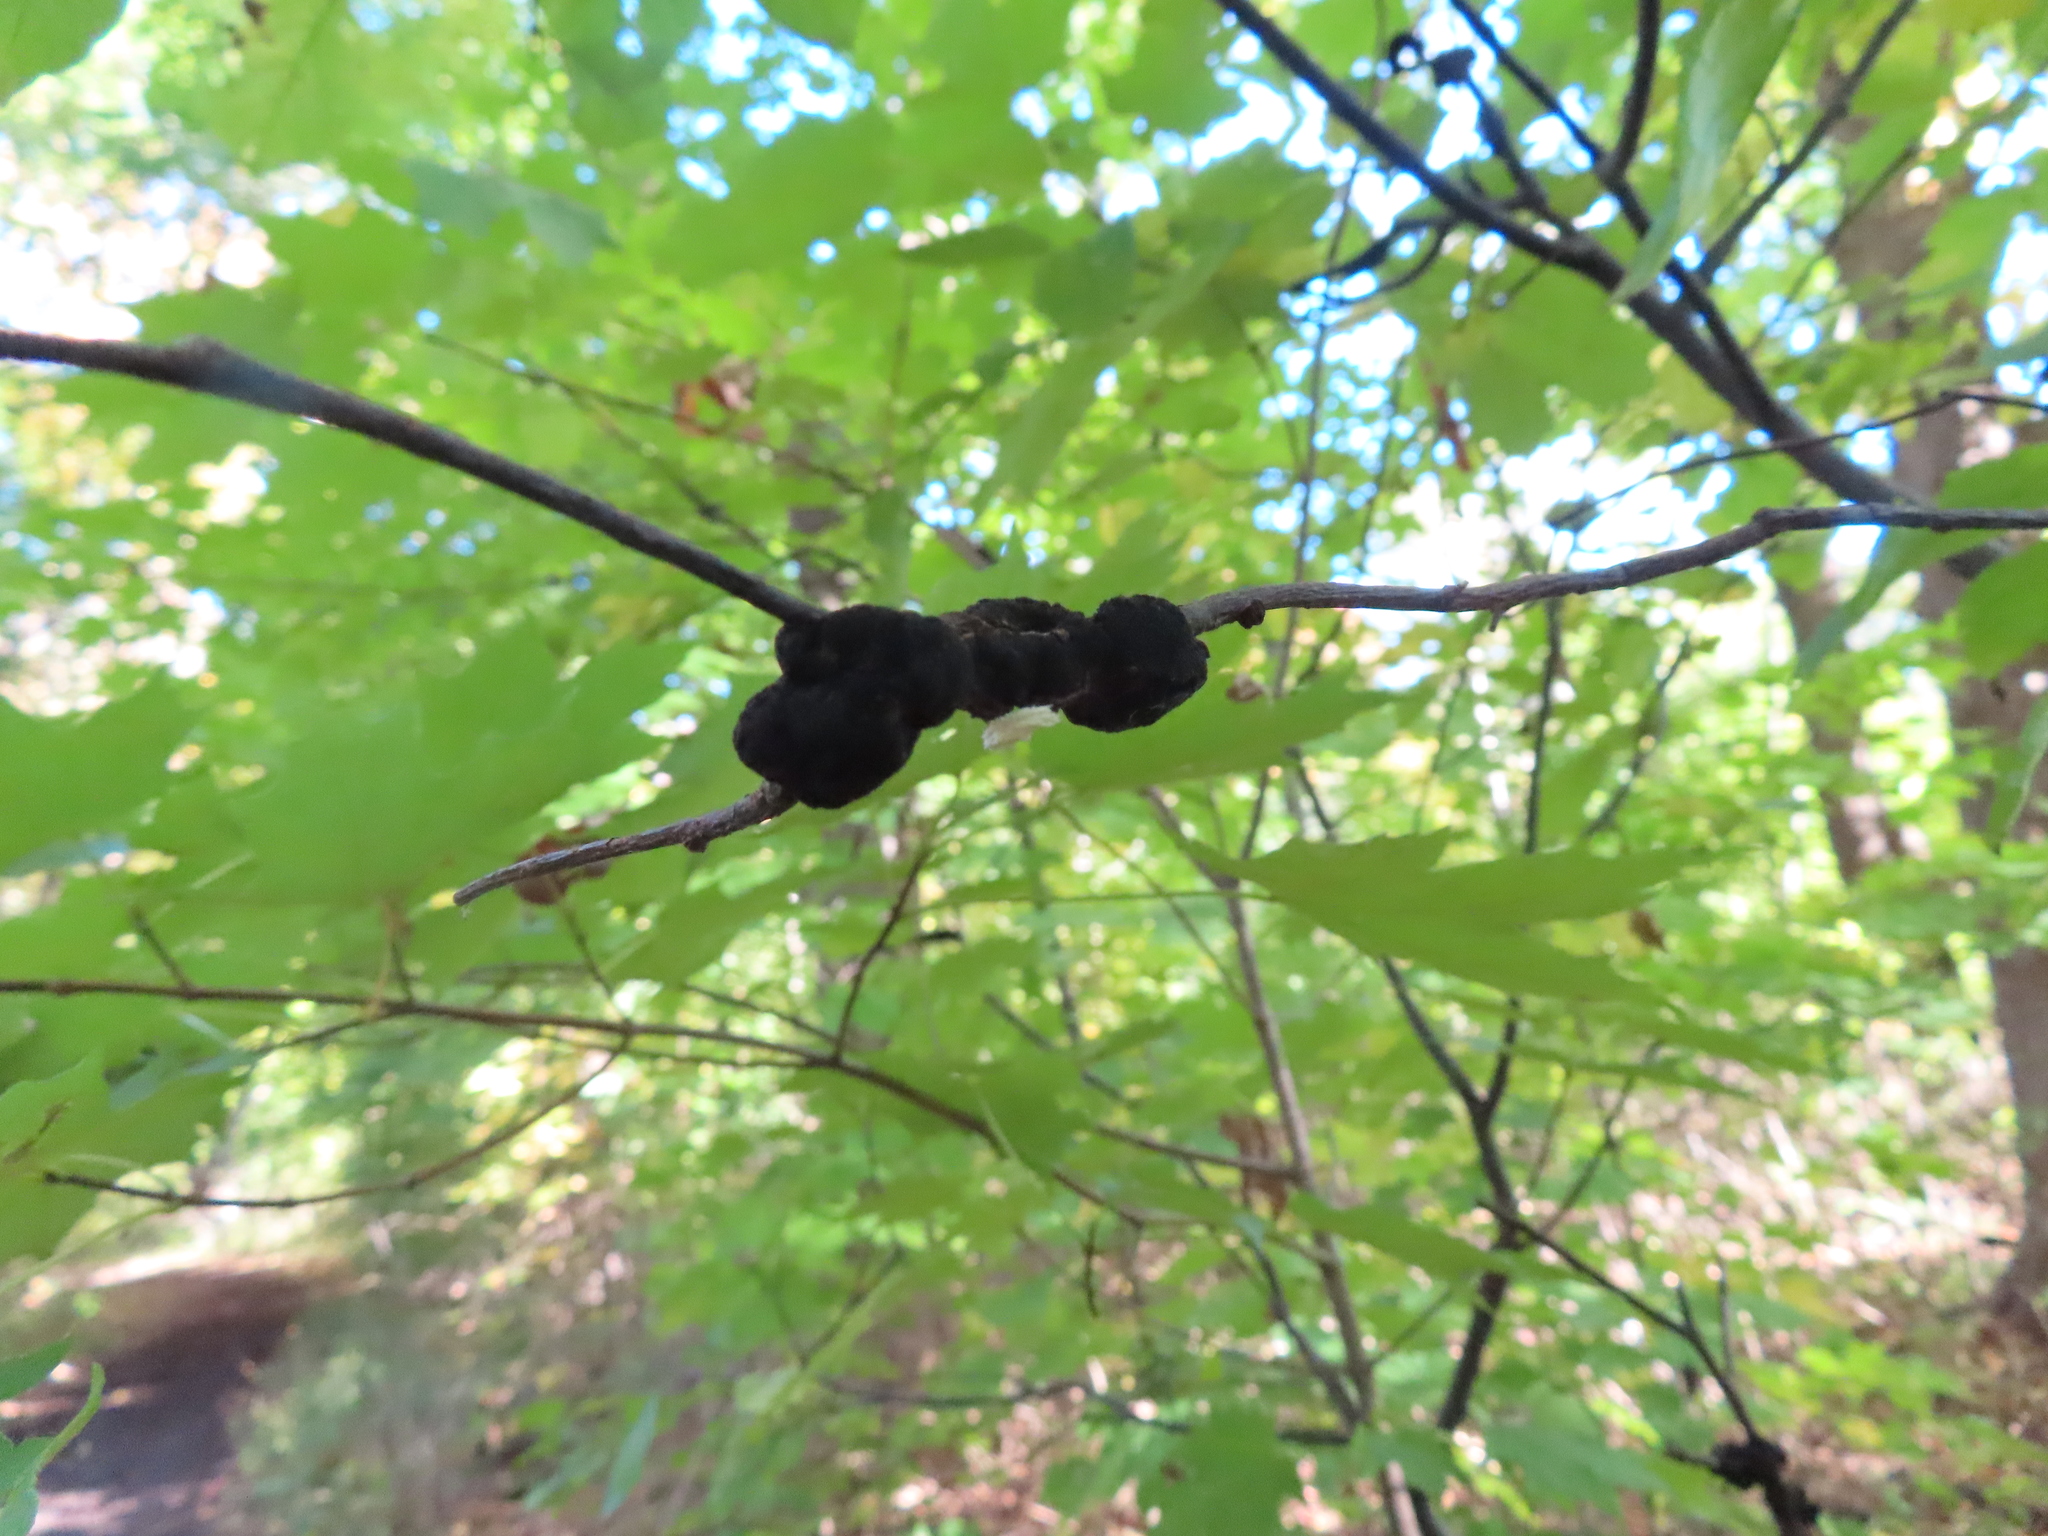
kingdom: Fungi
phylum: Ascomycota
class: Dothideomycetes
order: Venturiales
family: Venturiaceae
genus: Apiosporina
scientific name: Apiosporina morbosa
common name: Black knot
